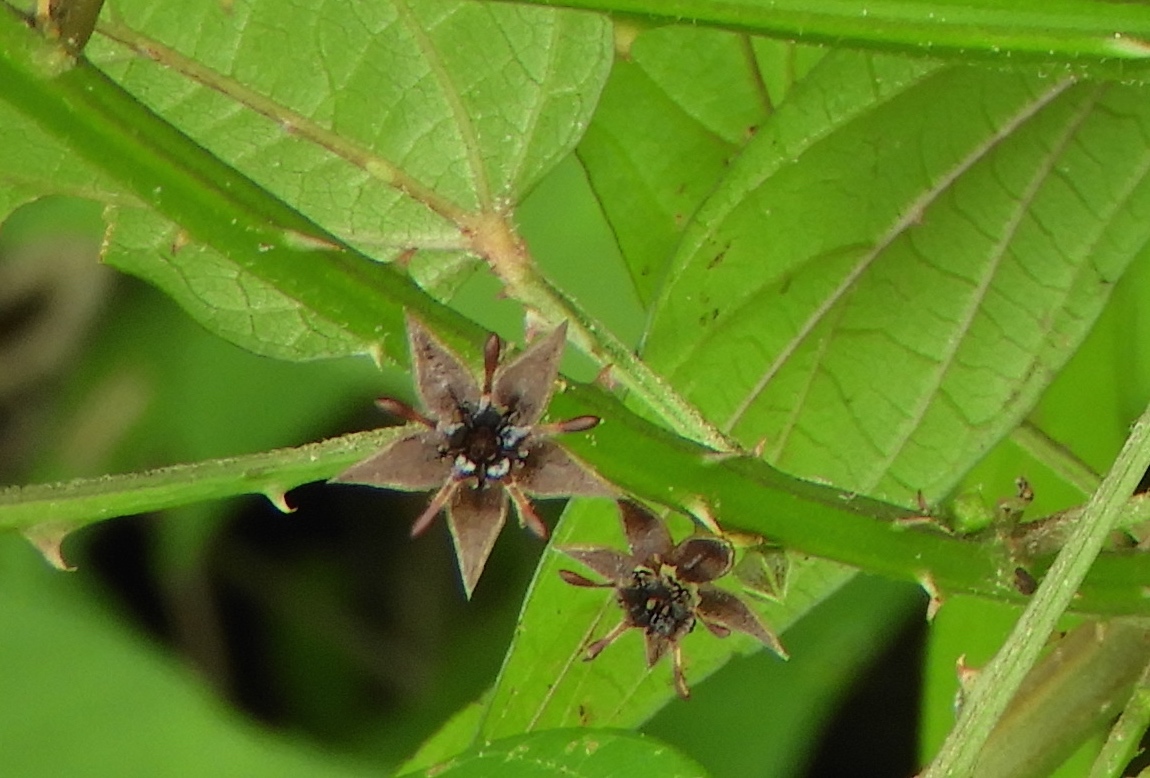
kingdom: Plantae
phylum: Tracheophyta
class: Magnoliopsida
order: Malvales
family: Malvaceae
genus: Byttneria
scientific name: Byttneria aculeata
